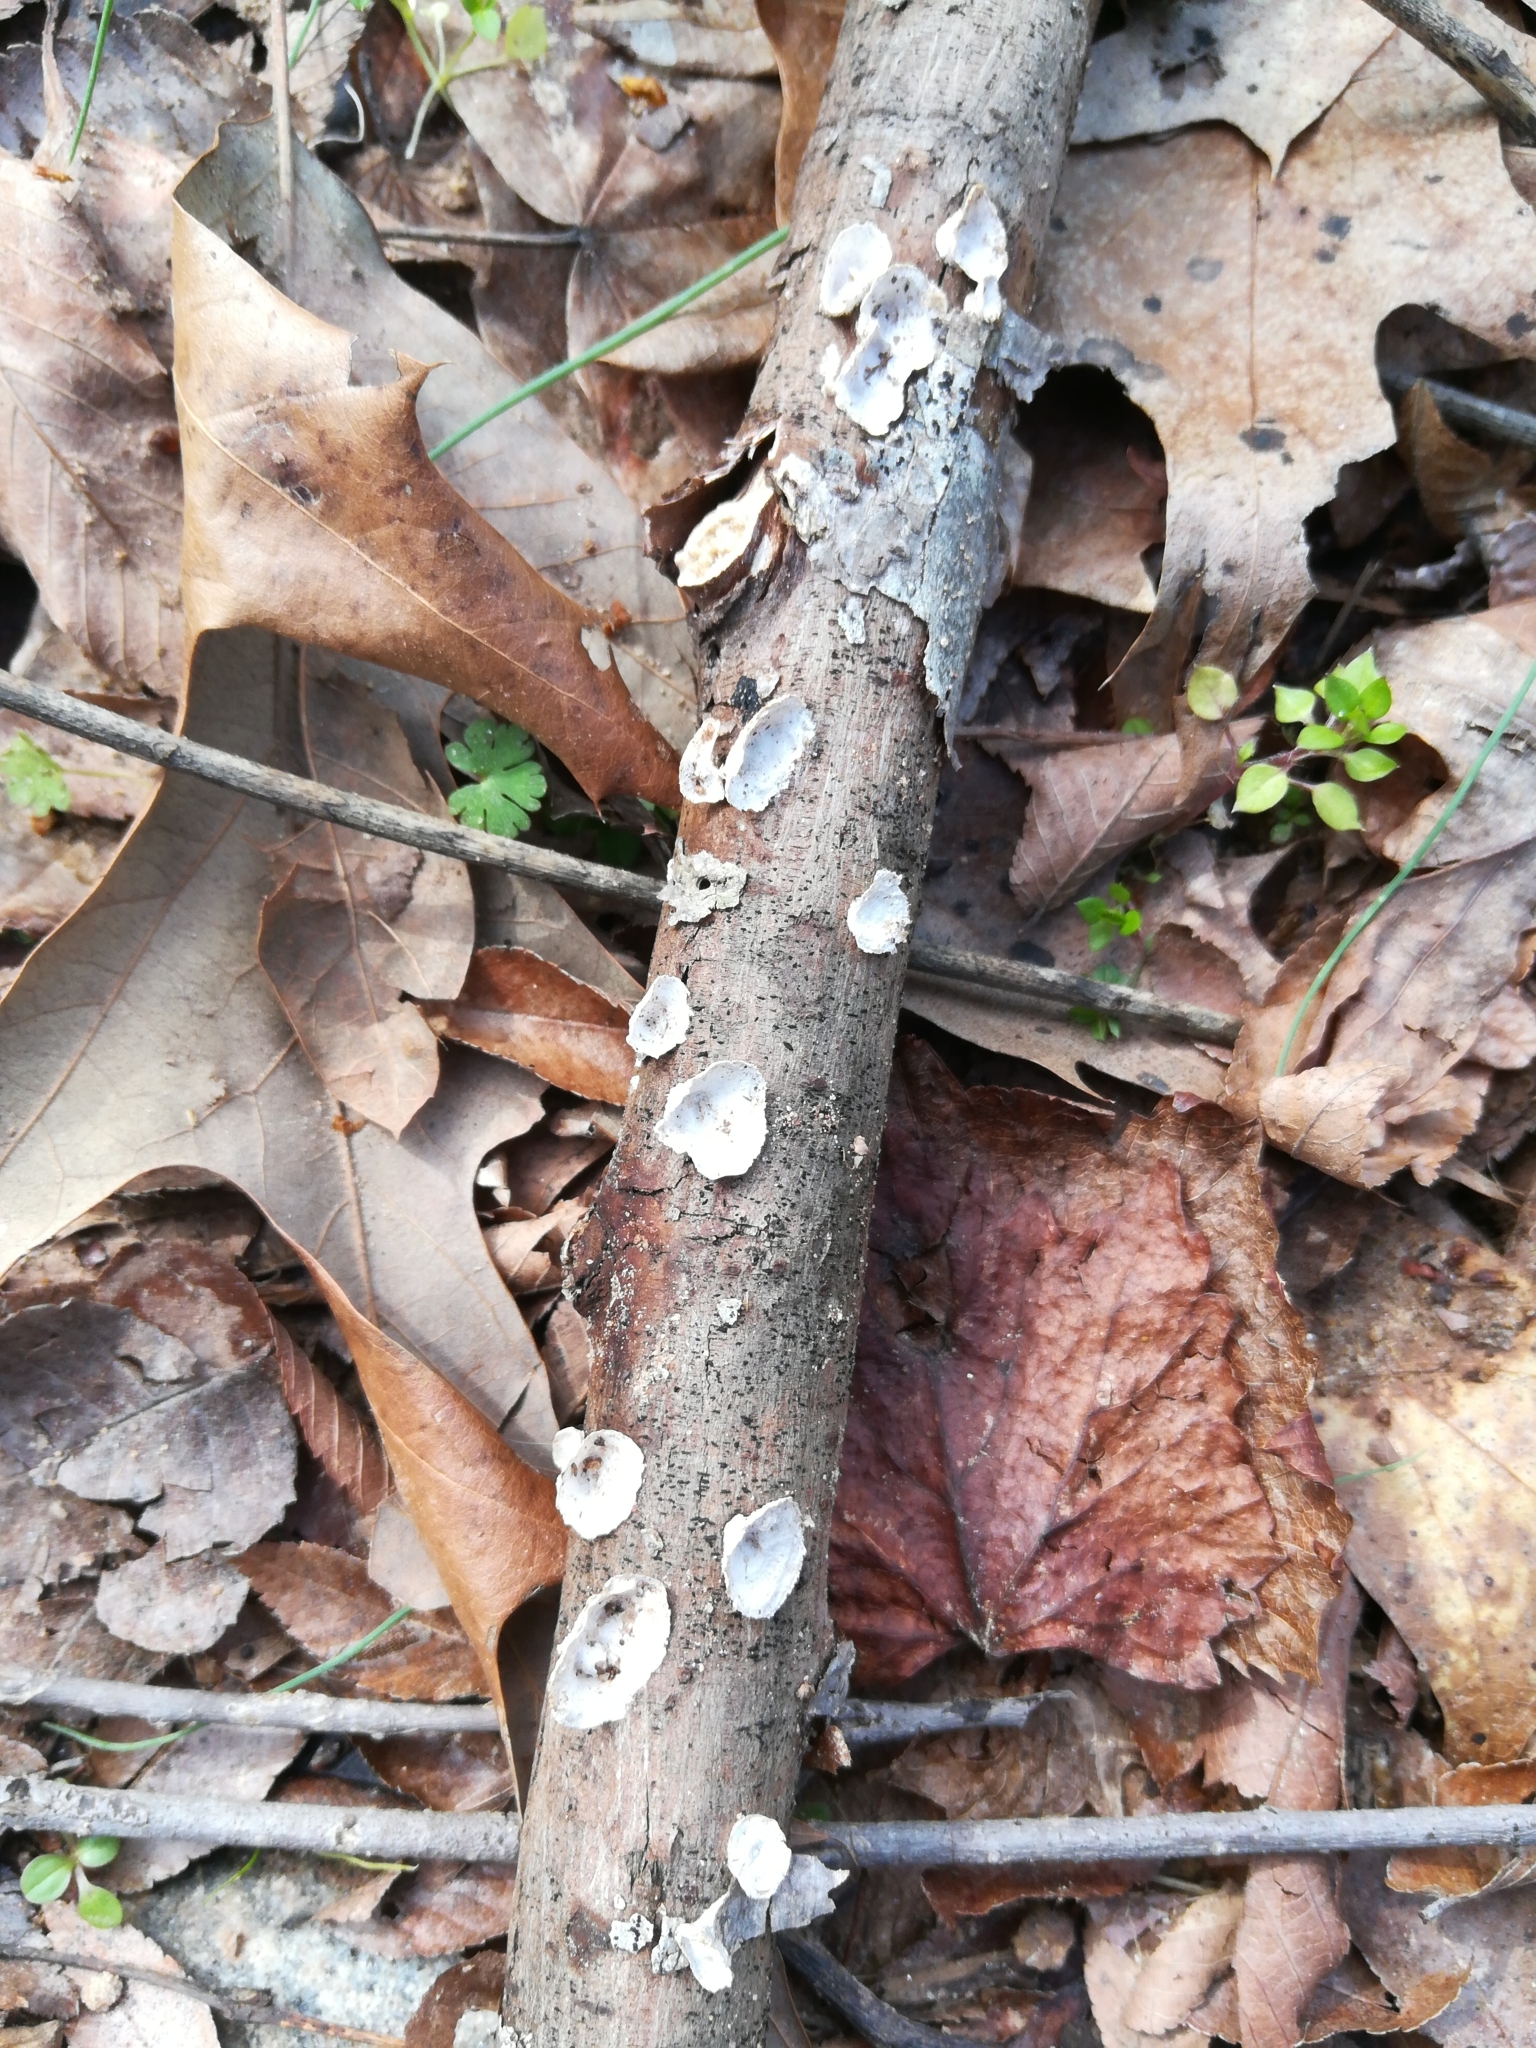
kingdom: Fungi
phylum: Basidiomycota
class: Agaricomycetes
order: Polyporales
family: Polyporaceae
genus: Poronidulus
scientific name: Poronidulus conchifer
